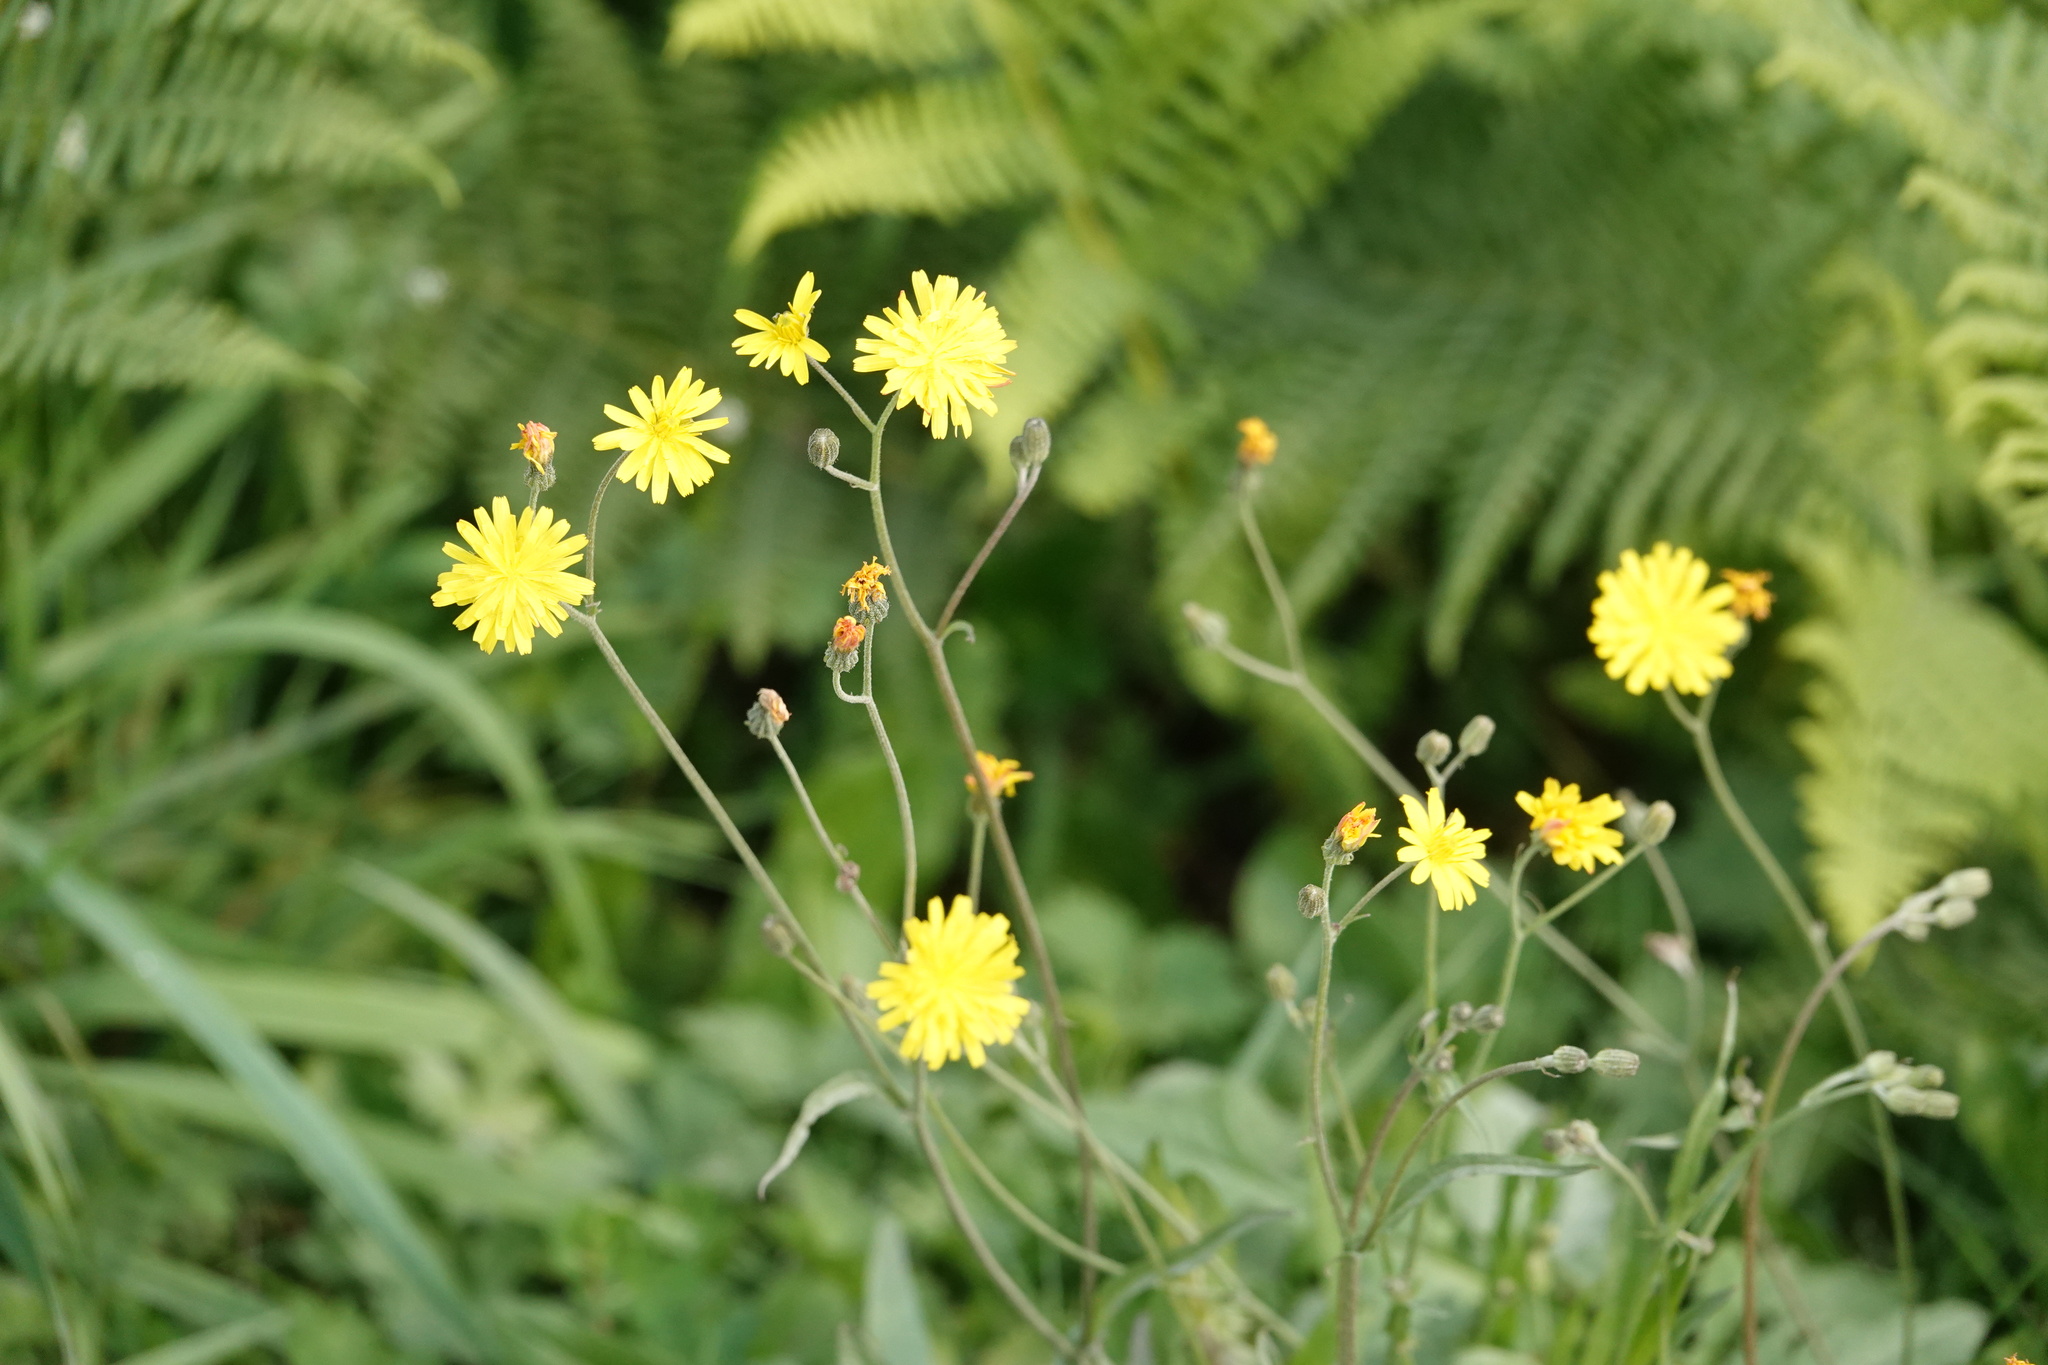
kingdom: Plantae
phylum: Tracheophyta
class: Magnoliopsida
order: Asterales
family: Asteraceae
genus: Crepis
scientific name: Crepis capillaris
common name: Smooth hawksbeard
